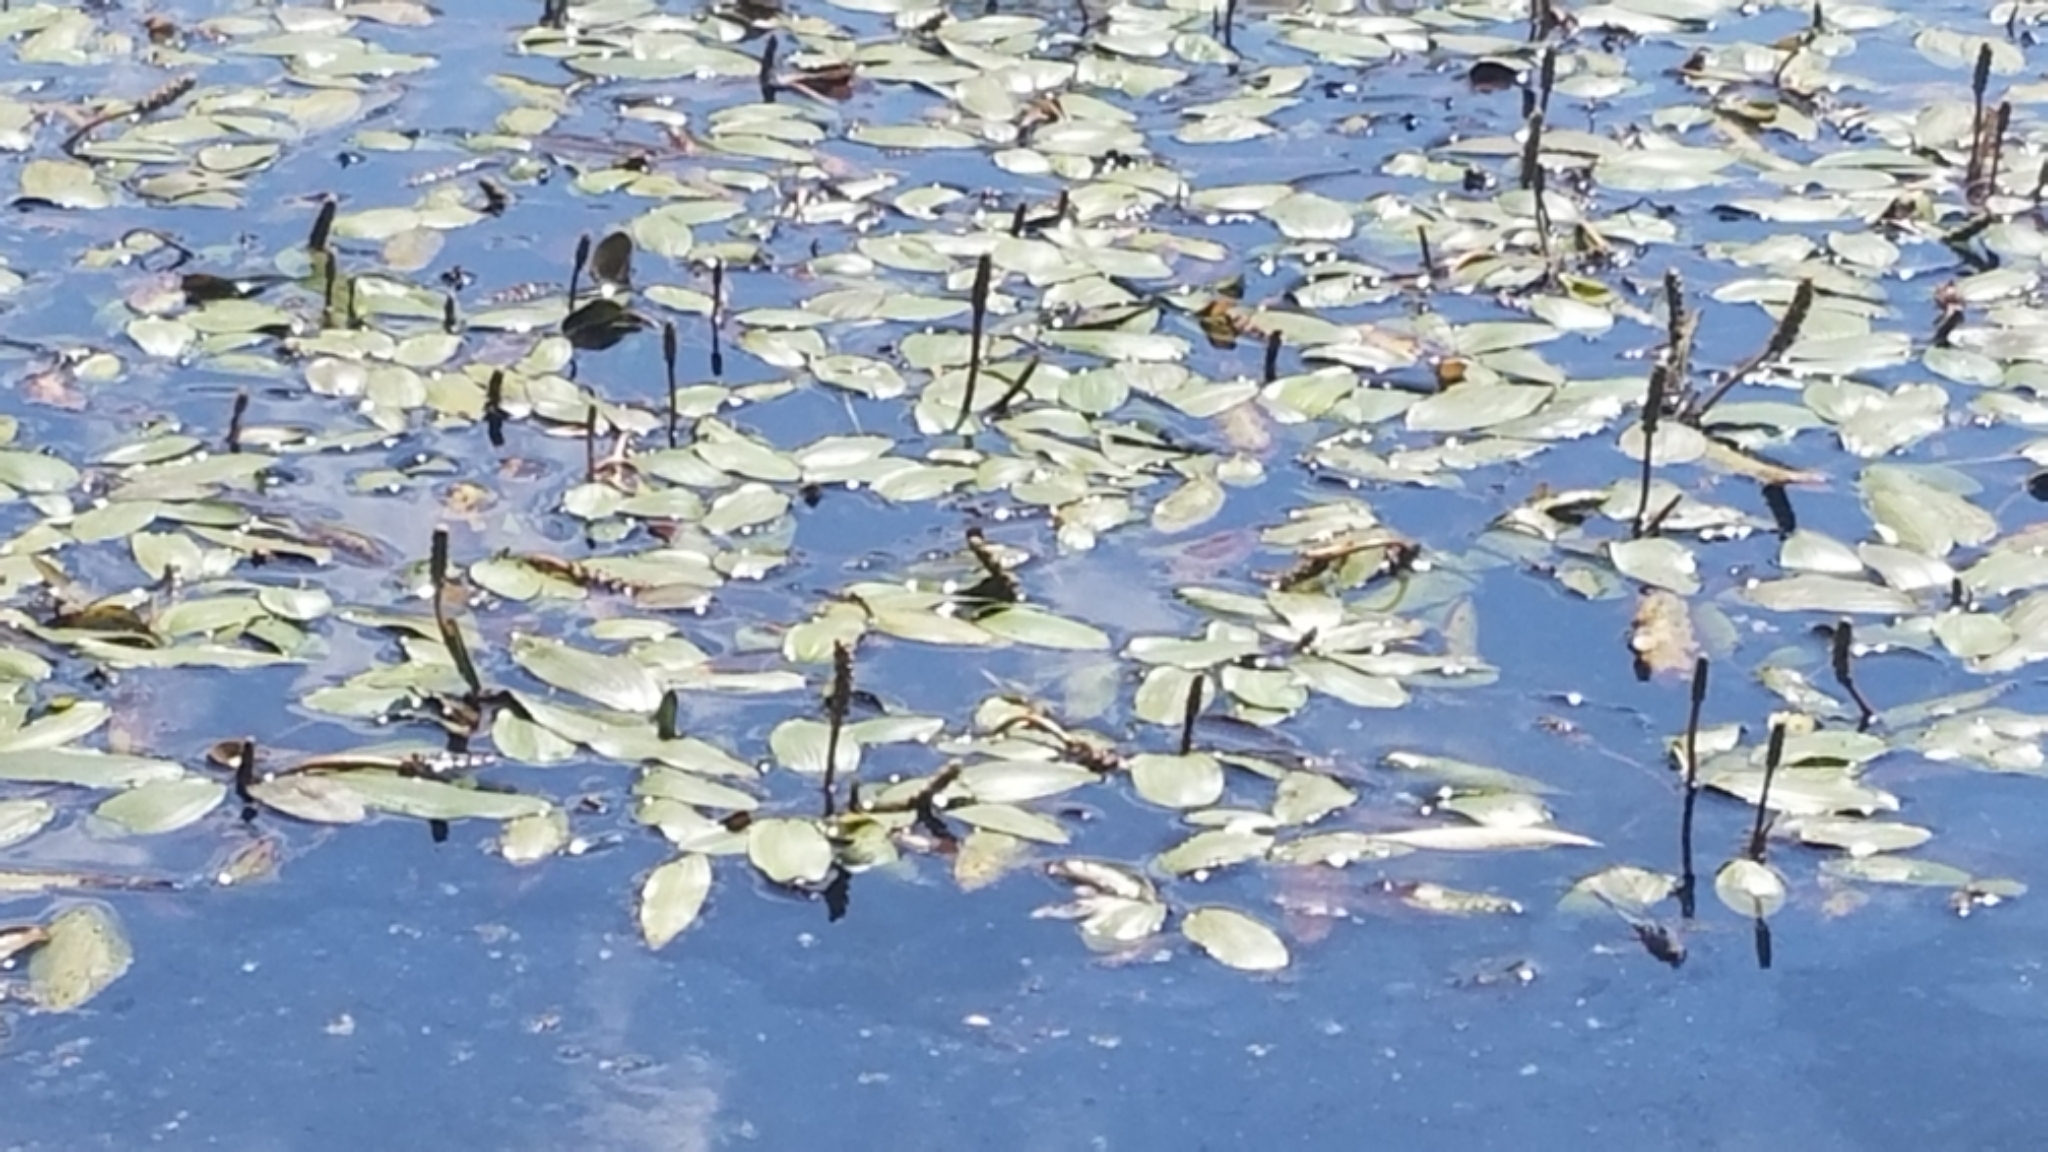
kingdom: Plantae
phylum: Tracheophyta
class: Liliopsida
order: Alismatales
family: Potamogetonaceae
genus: Potamogeton
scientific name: Potamogeton natans
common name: Broad-leaved pondweed
